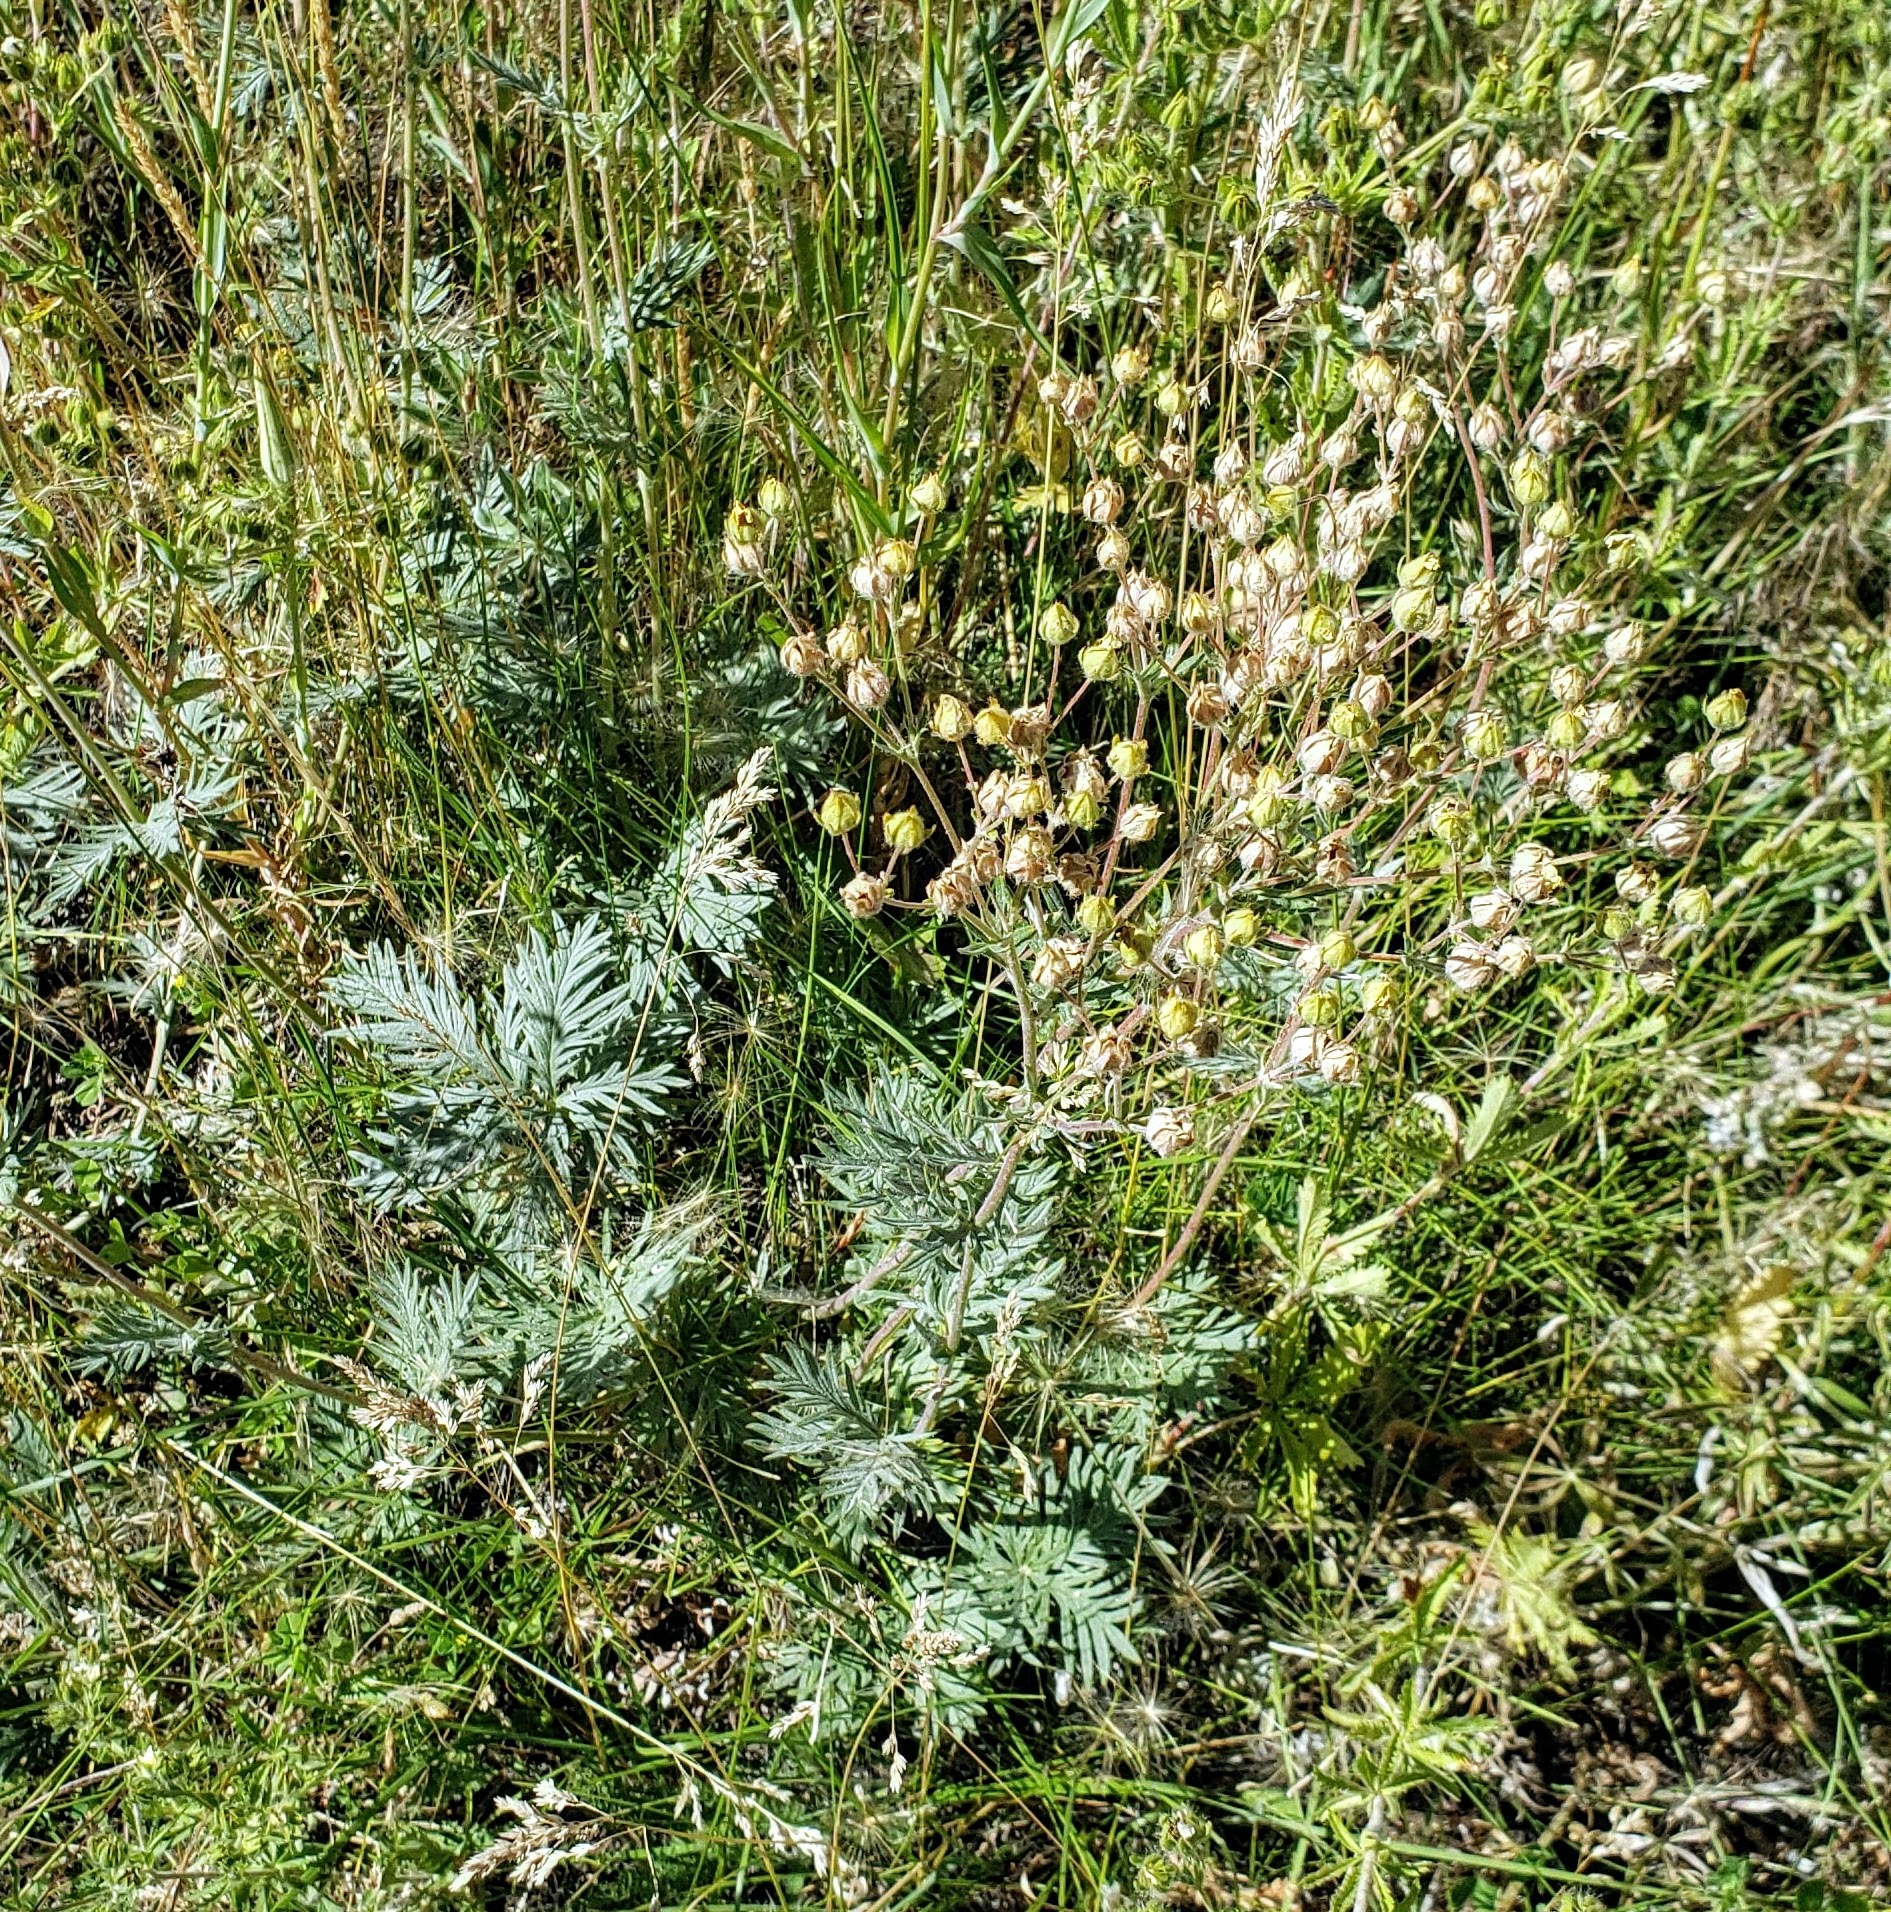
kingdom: Plantae
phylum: Tracheophyta
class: Magnoliopsida
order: Rosales
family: Rosaceae
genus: Potentilla
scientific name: Potentilla gracilis
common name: Graceful cinquefoil
